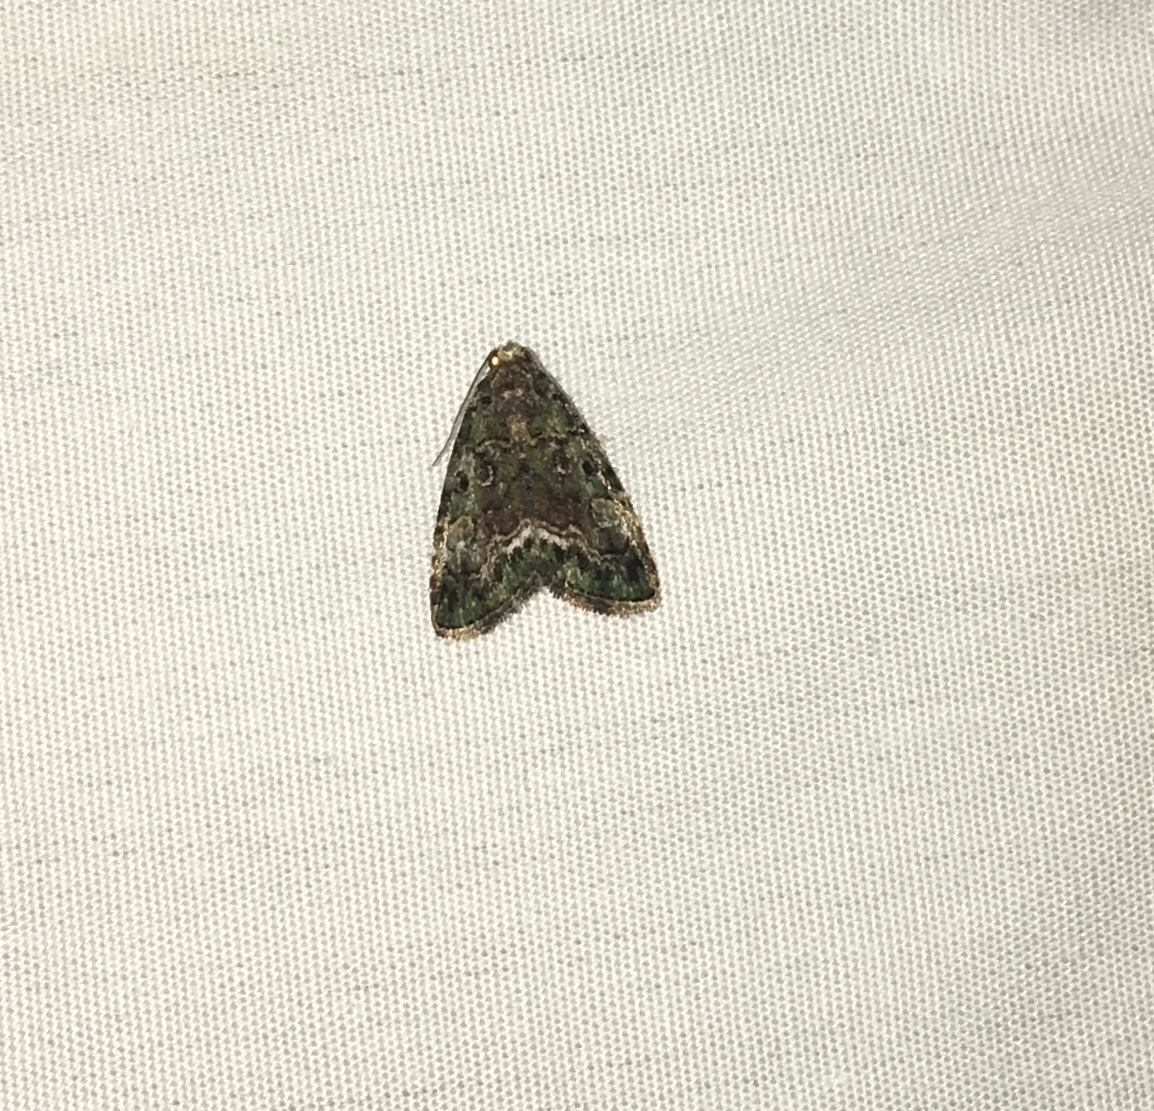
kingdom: Animalia
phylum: Arthropoda
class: Insecta
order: Lepidoptera
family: Noctuidae
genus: Lithacodia
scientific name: Lithacodia musta
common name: Small mossy glyph
